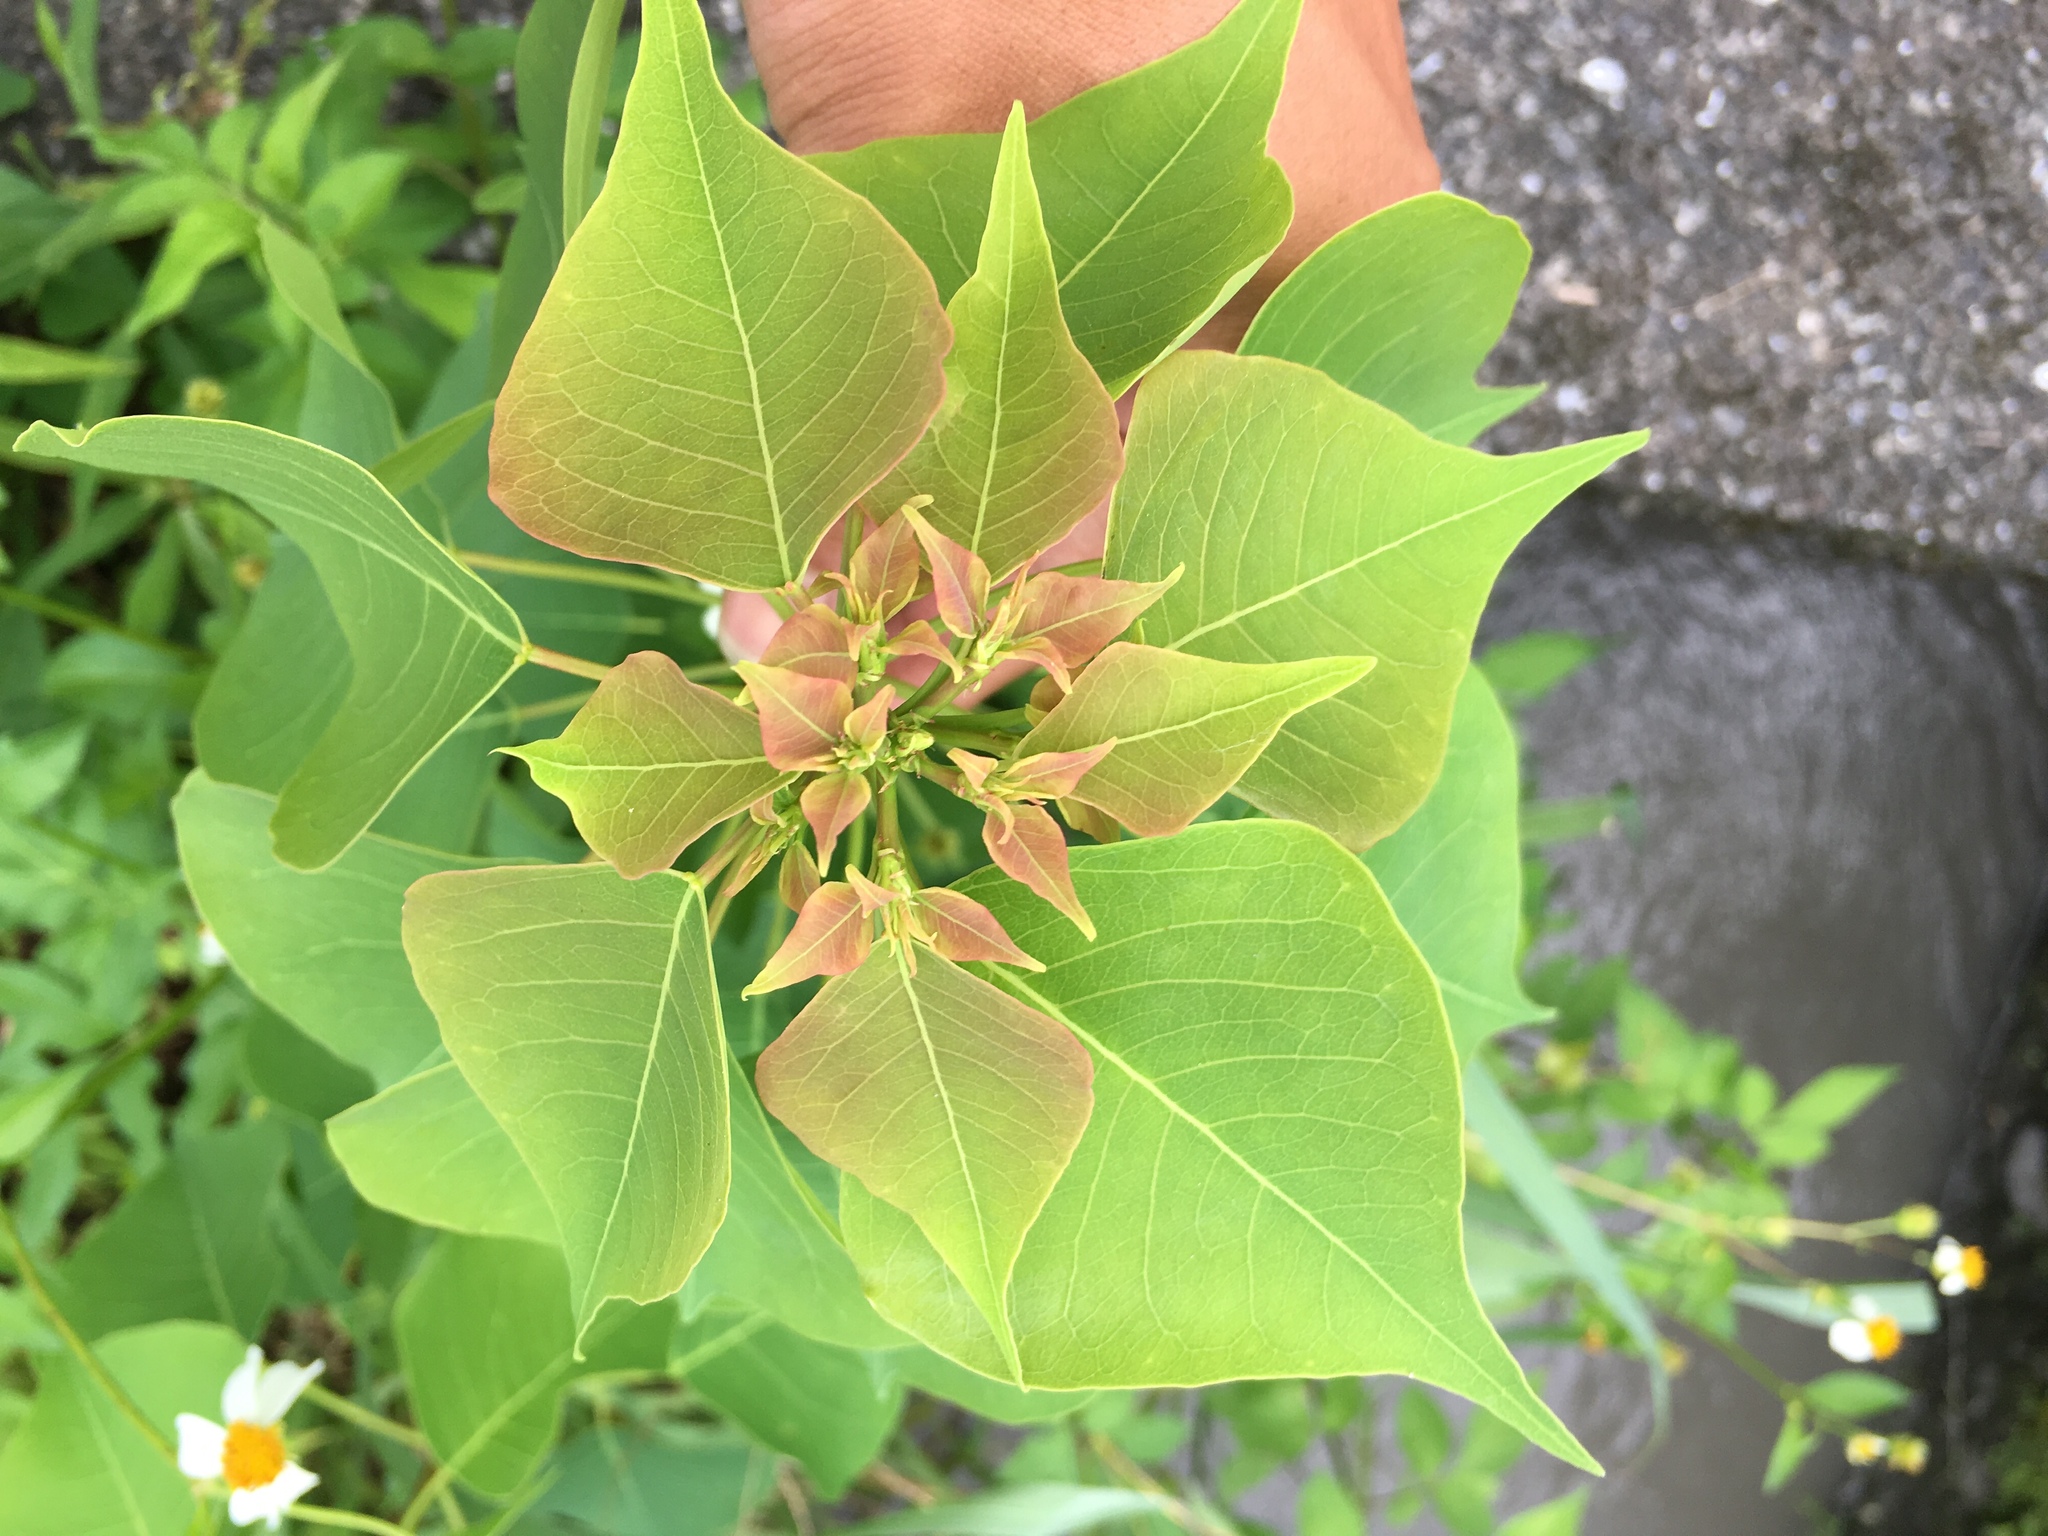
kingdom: Plantae
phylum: Tracheophyta
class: Magnoliopsida
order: Malpighiales
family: Euphorbiaceae
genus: Triadica
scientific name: Triadica sebifera
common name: Chinese tallow
